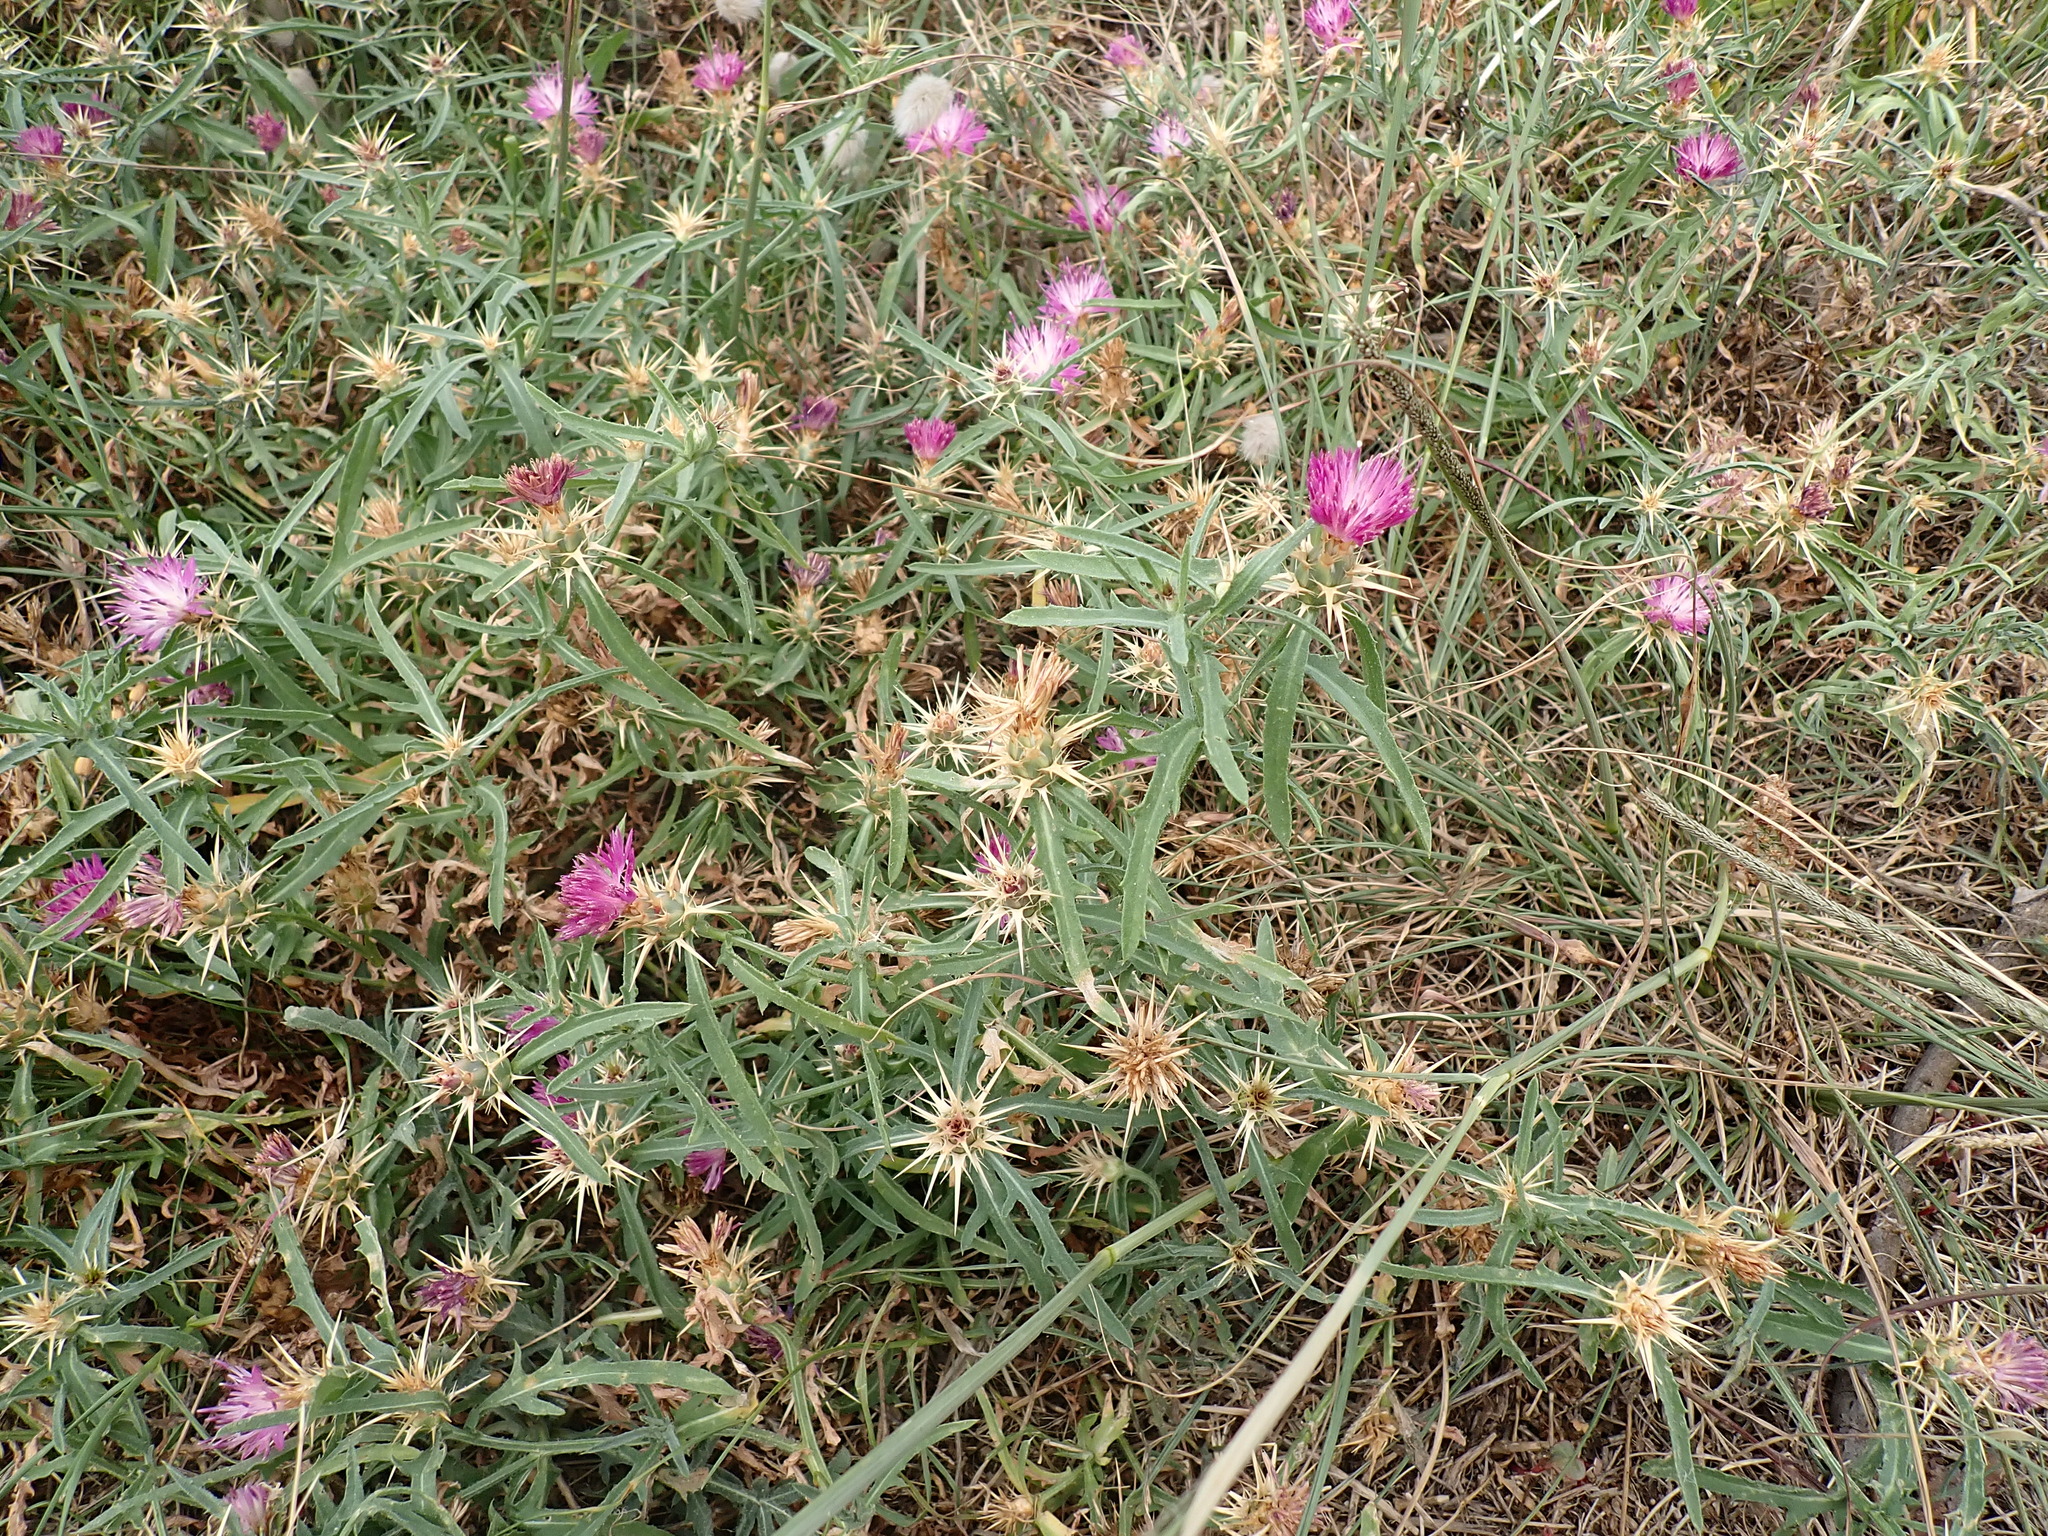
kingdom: Plantae
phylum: Tracheophyta
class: Magnoliopsida
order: Asterales
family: Asteraceae
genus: Centaurea
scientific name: Centaurea calcitrapa
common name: Red star-thistle
